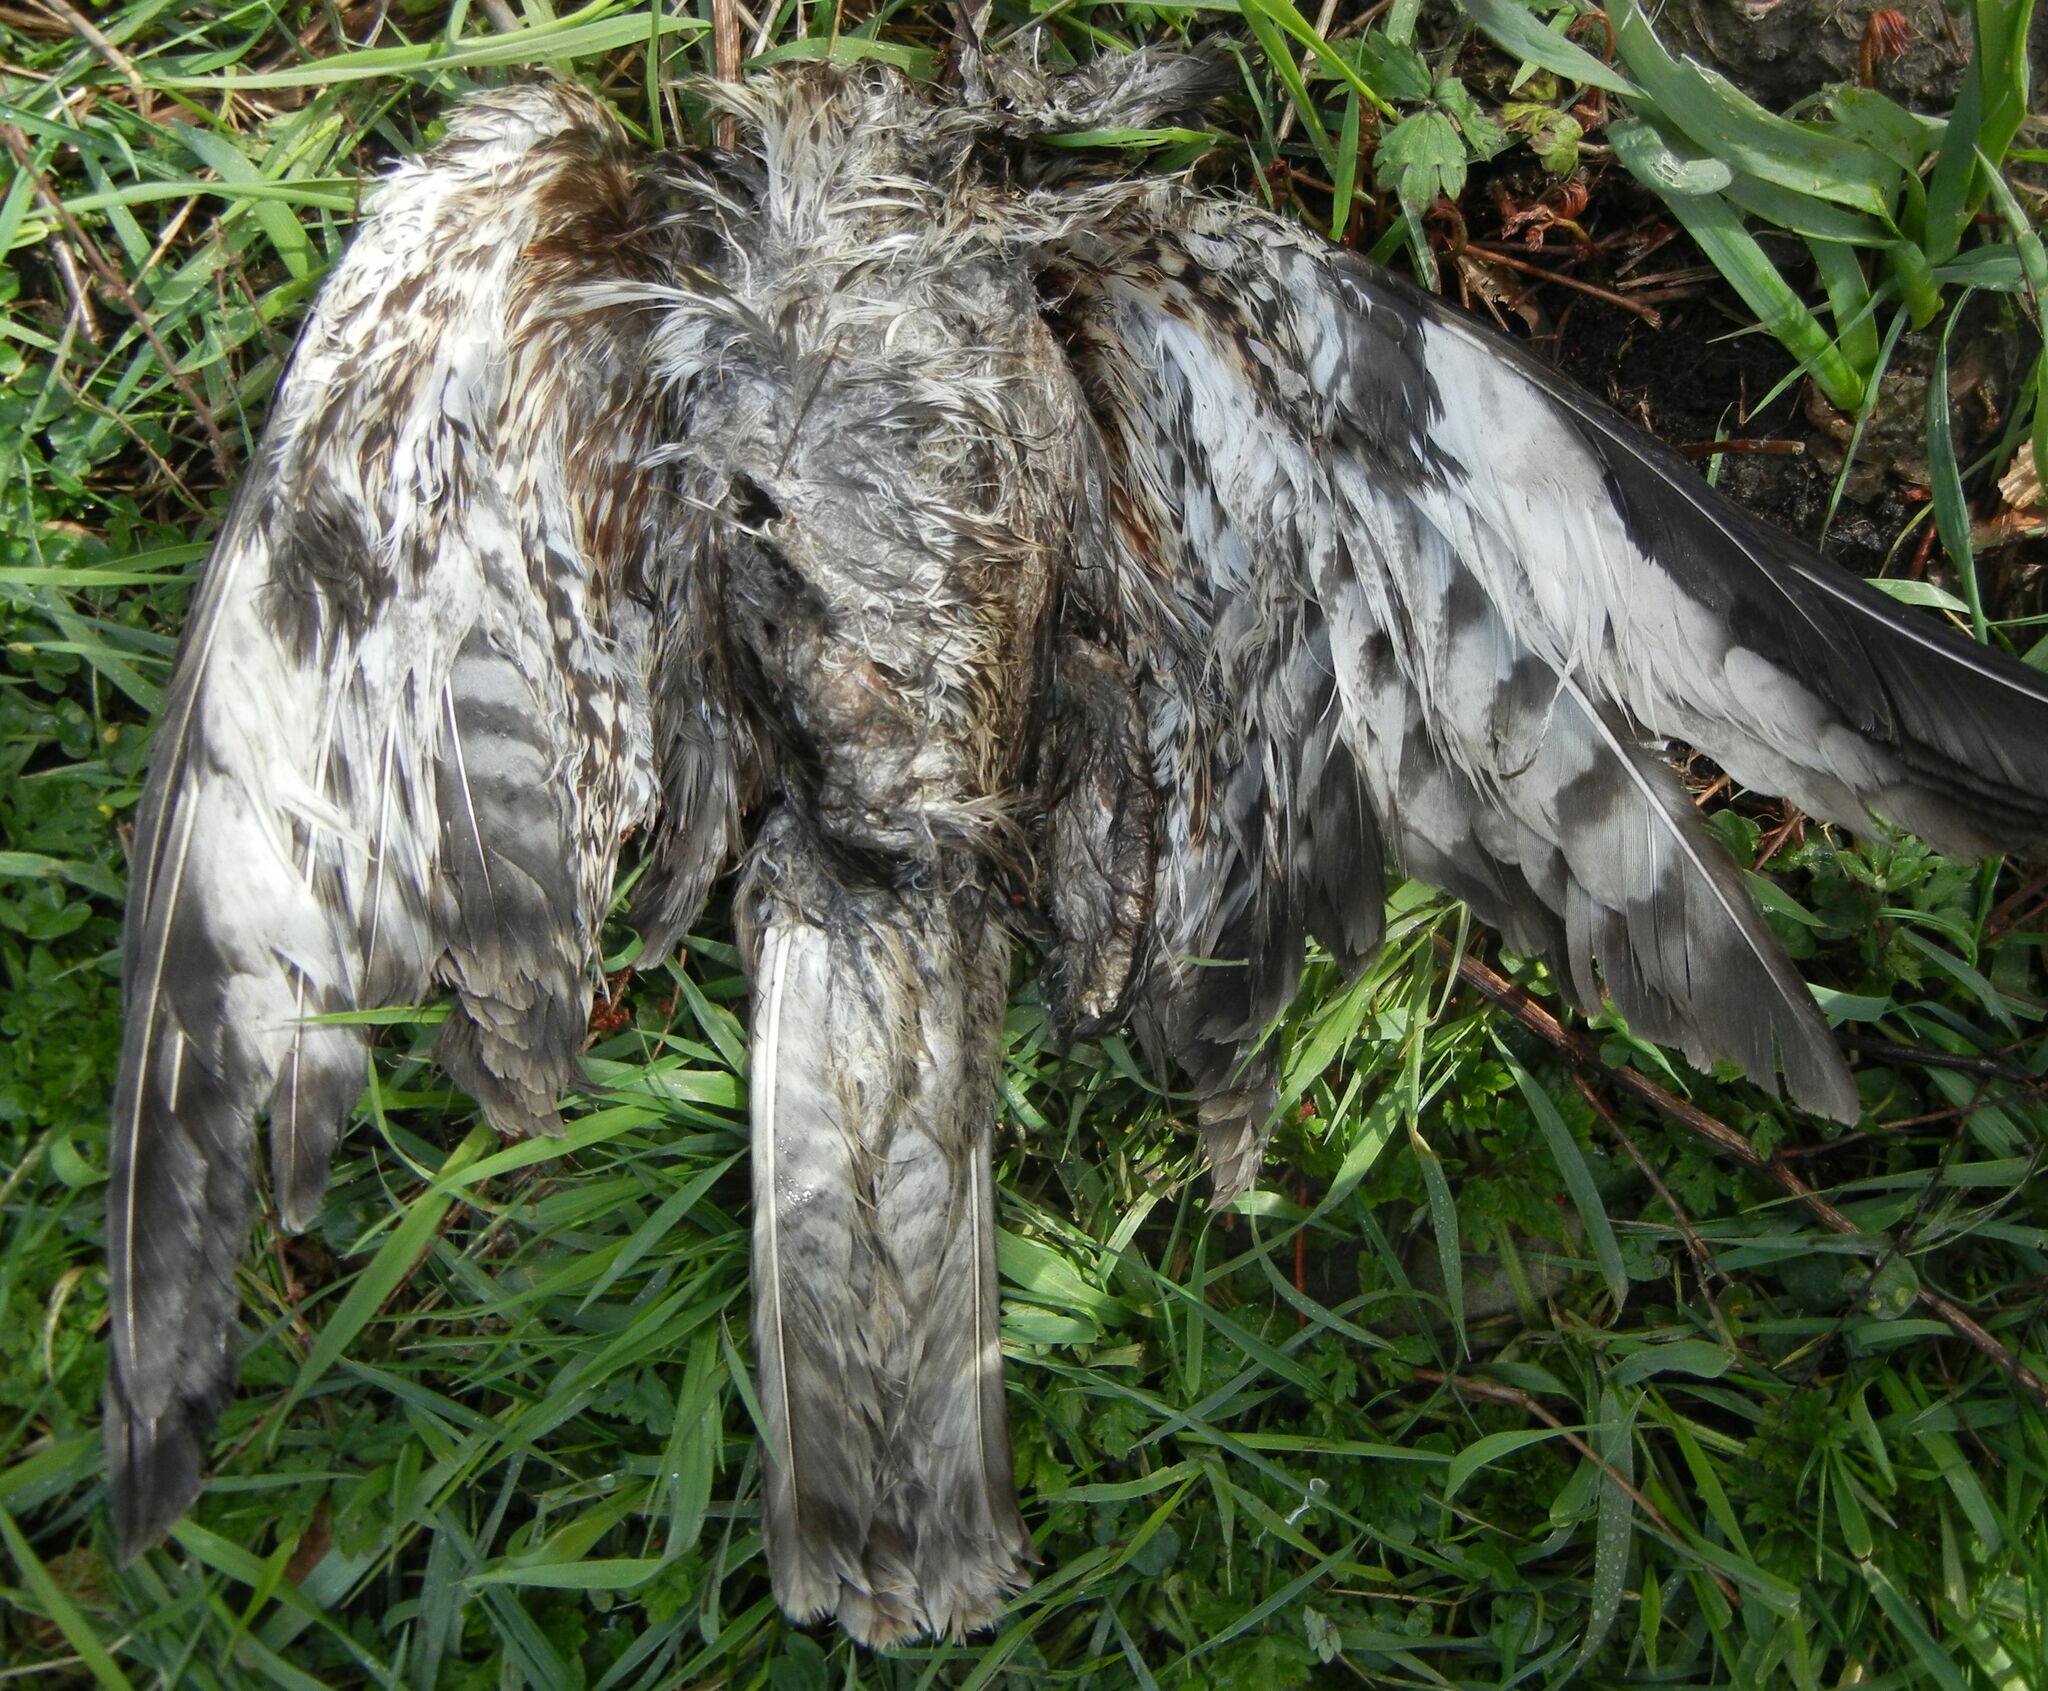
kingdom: Animalia
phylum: Chordata
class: Aves
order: Accipitriformes
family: Accipitridae
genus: Buteo
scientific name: Buteo buteo
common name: Common buzzard
